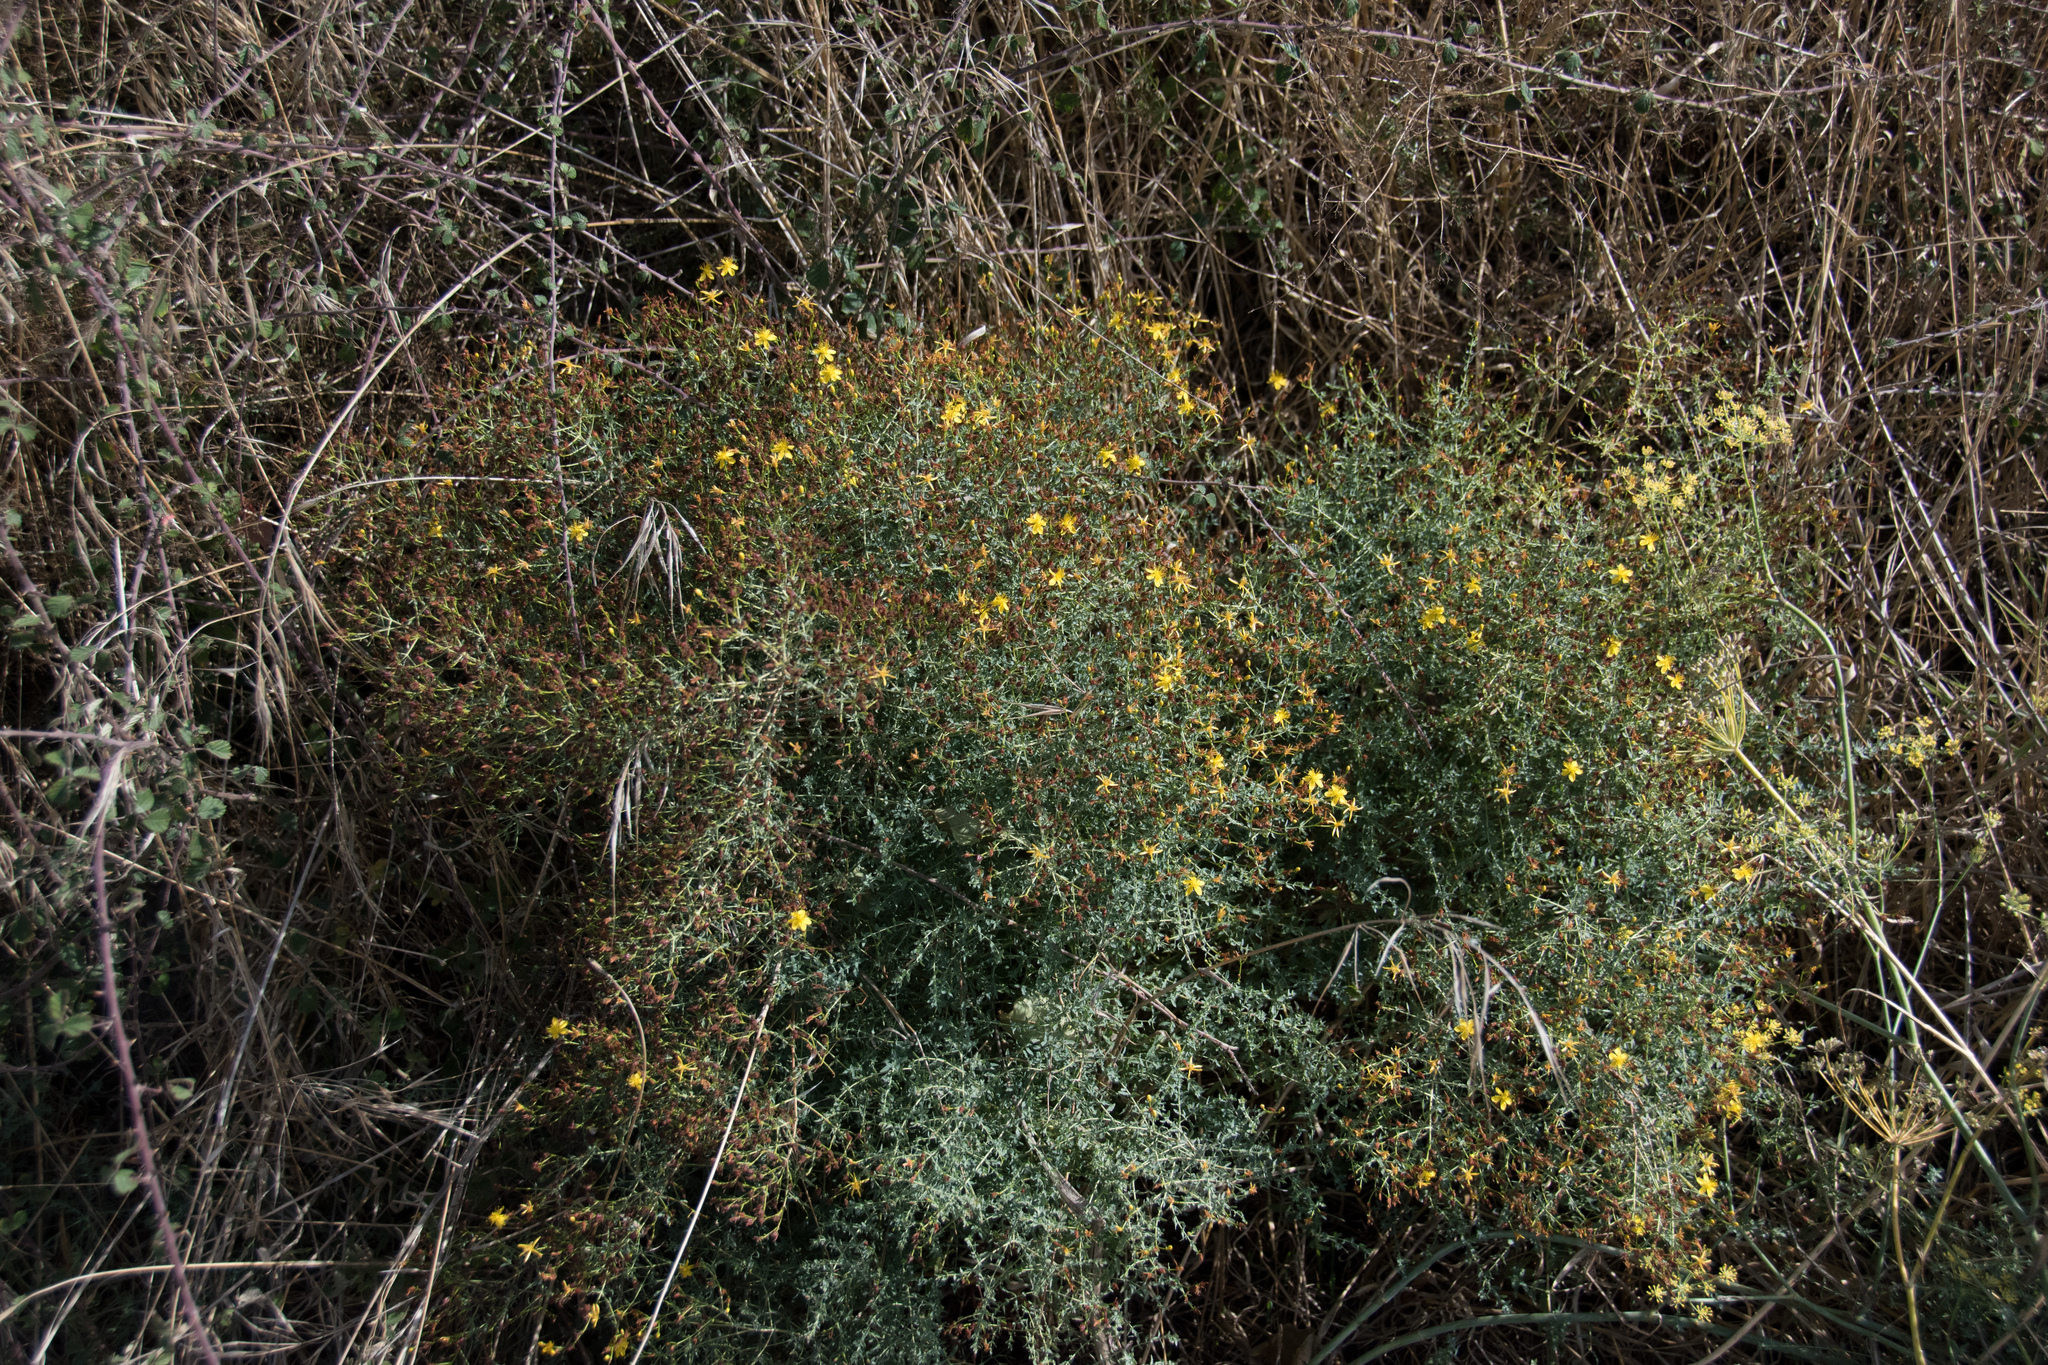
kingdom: Plantae
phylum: Tracheophyta
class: Magnoliopsida
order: Malpighiales
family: Hypericaceae
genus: Hypericum
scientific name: Hypericum triquetrifolium
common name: Tangled hypericum
